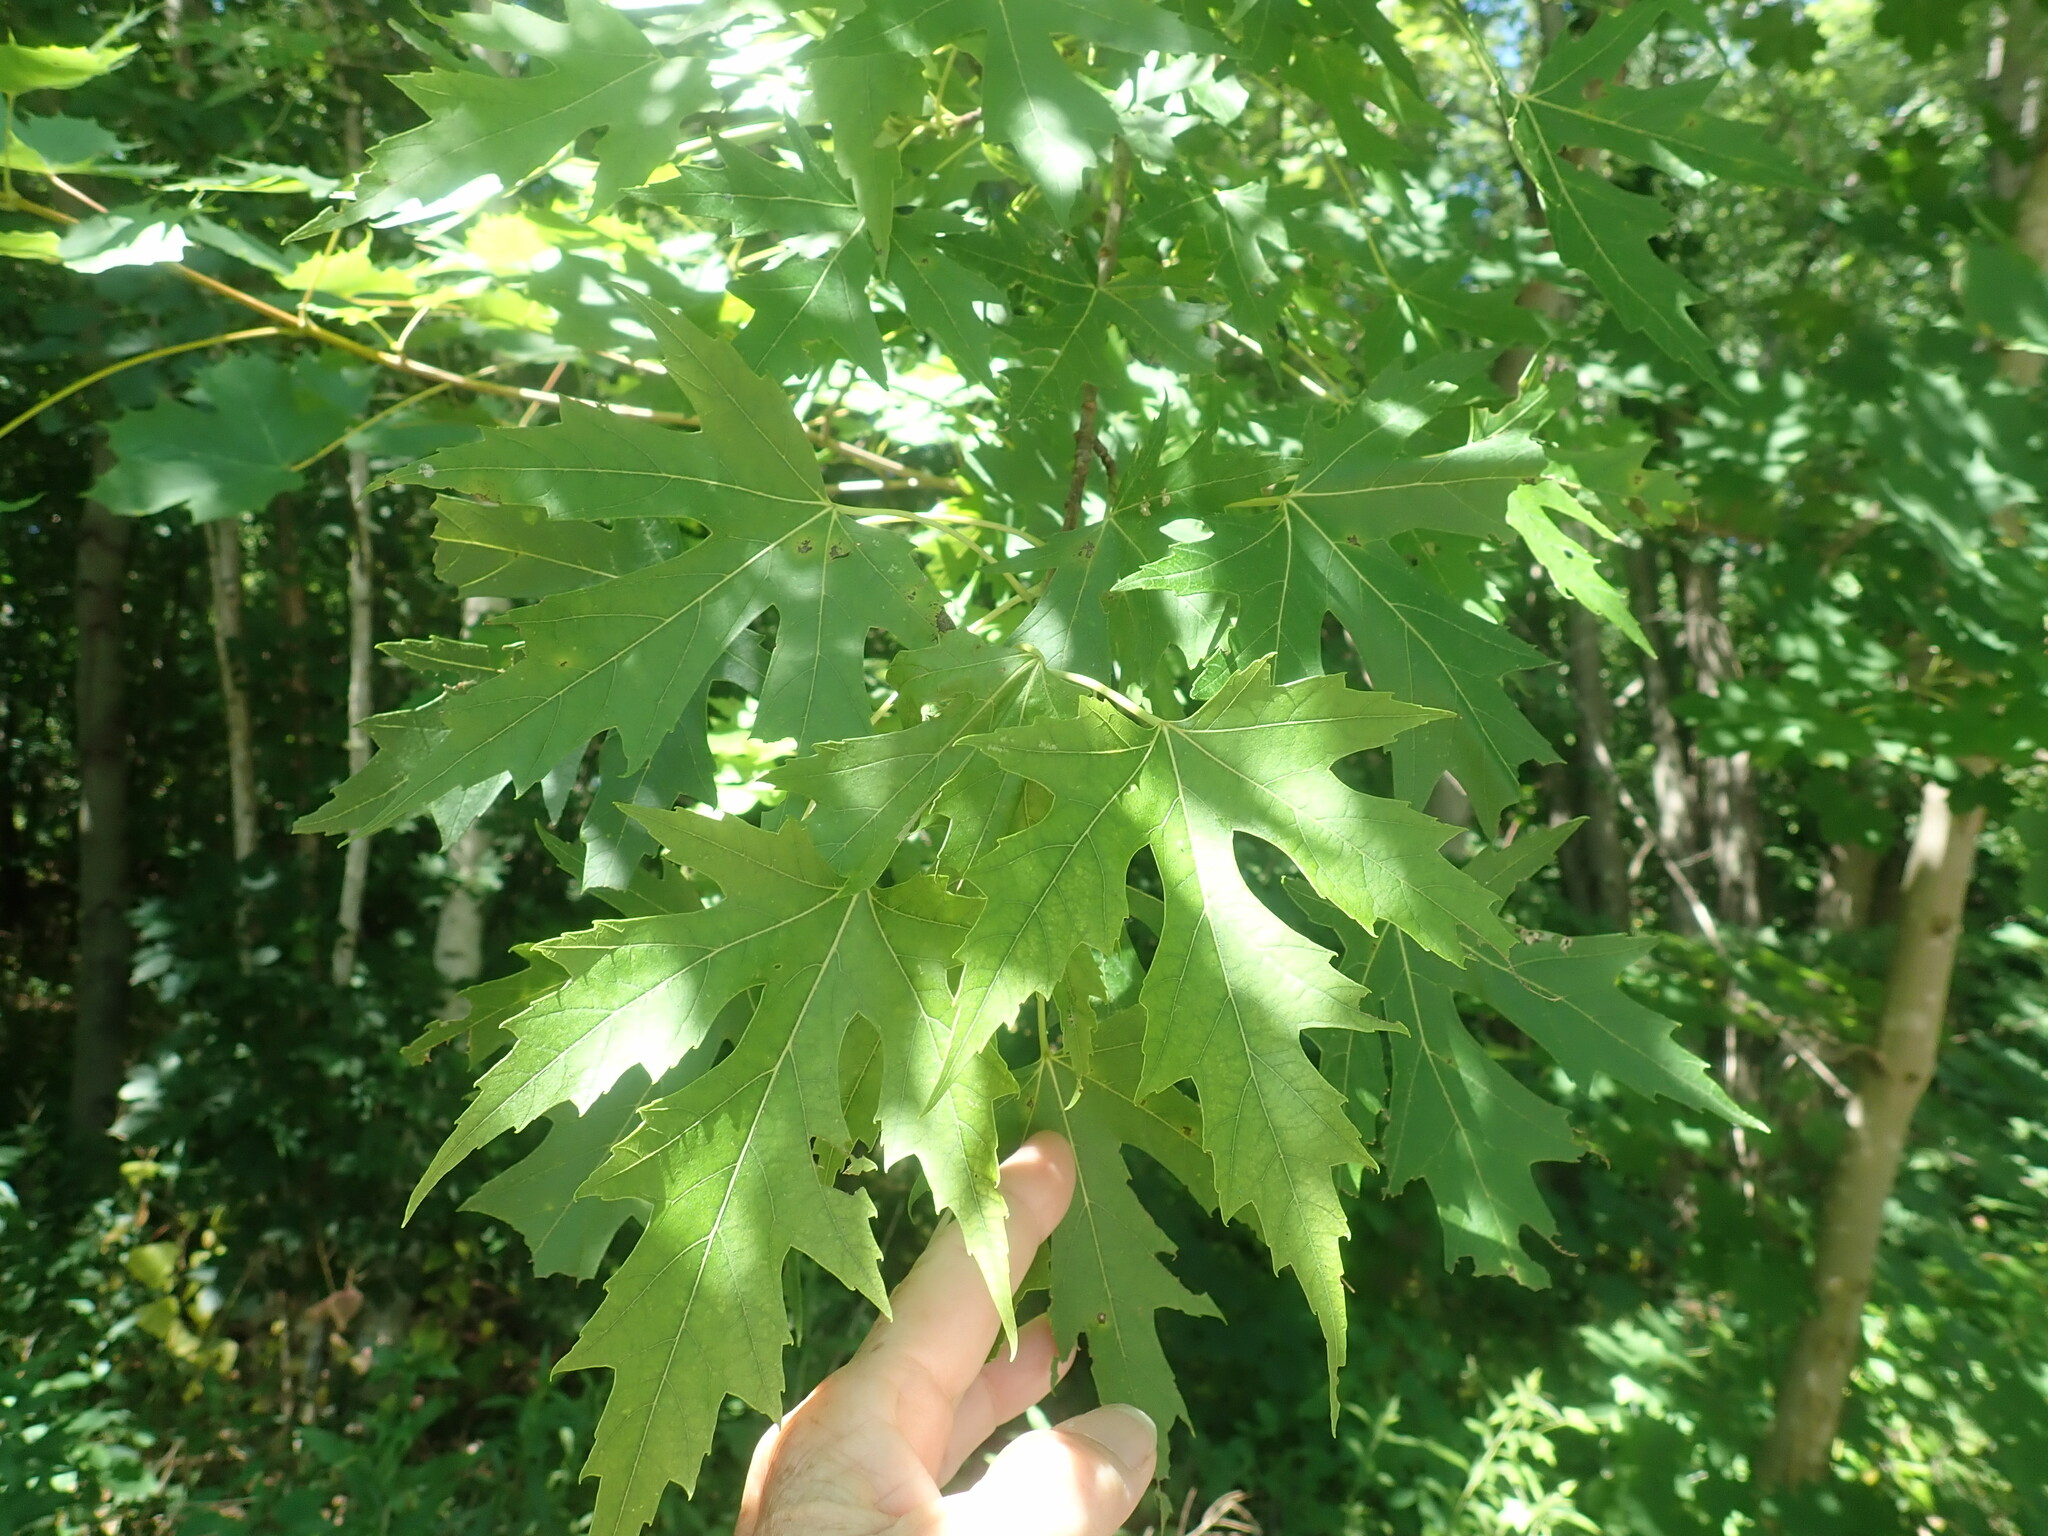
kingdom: Plantae
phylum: Tracheophyta
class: Magnoliopsida
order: Sapindales
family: Sapindaceae
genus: Acer
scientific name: Acer saccharinum
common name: Silver maple
